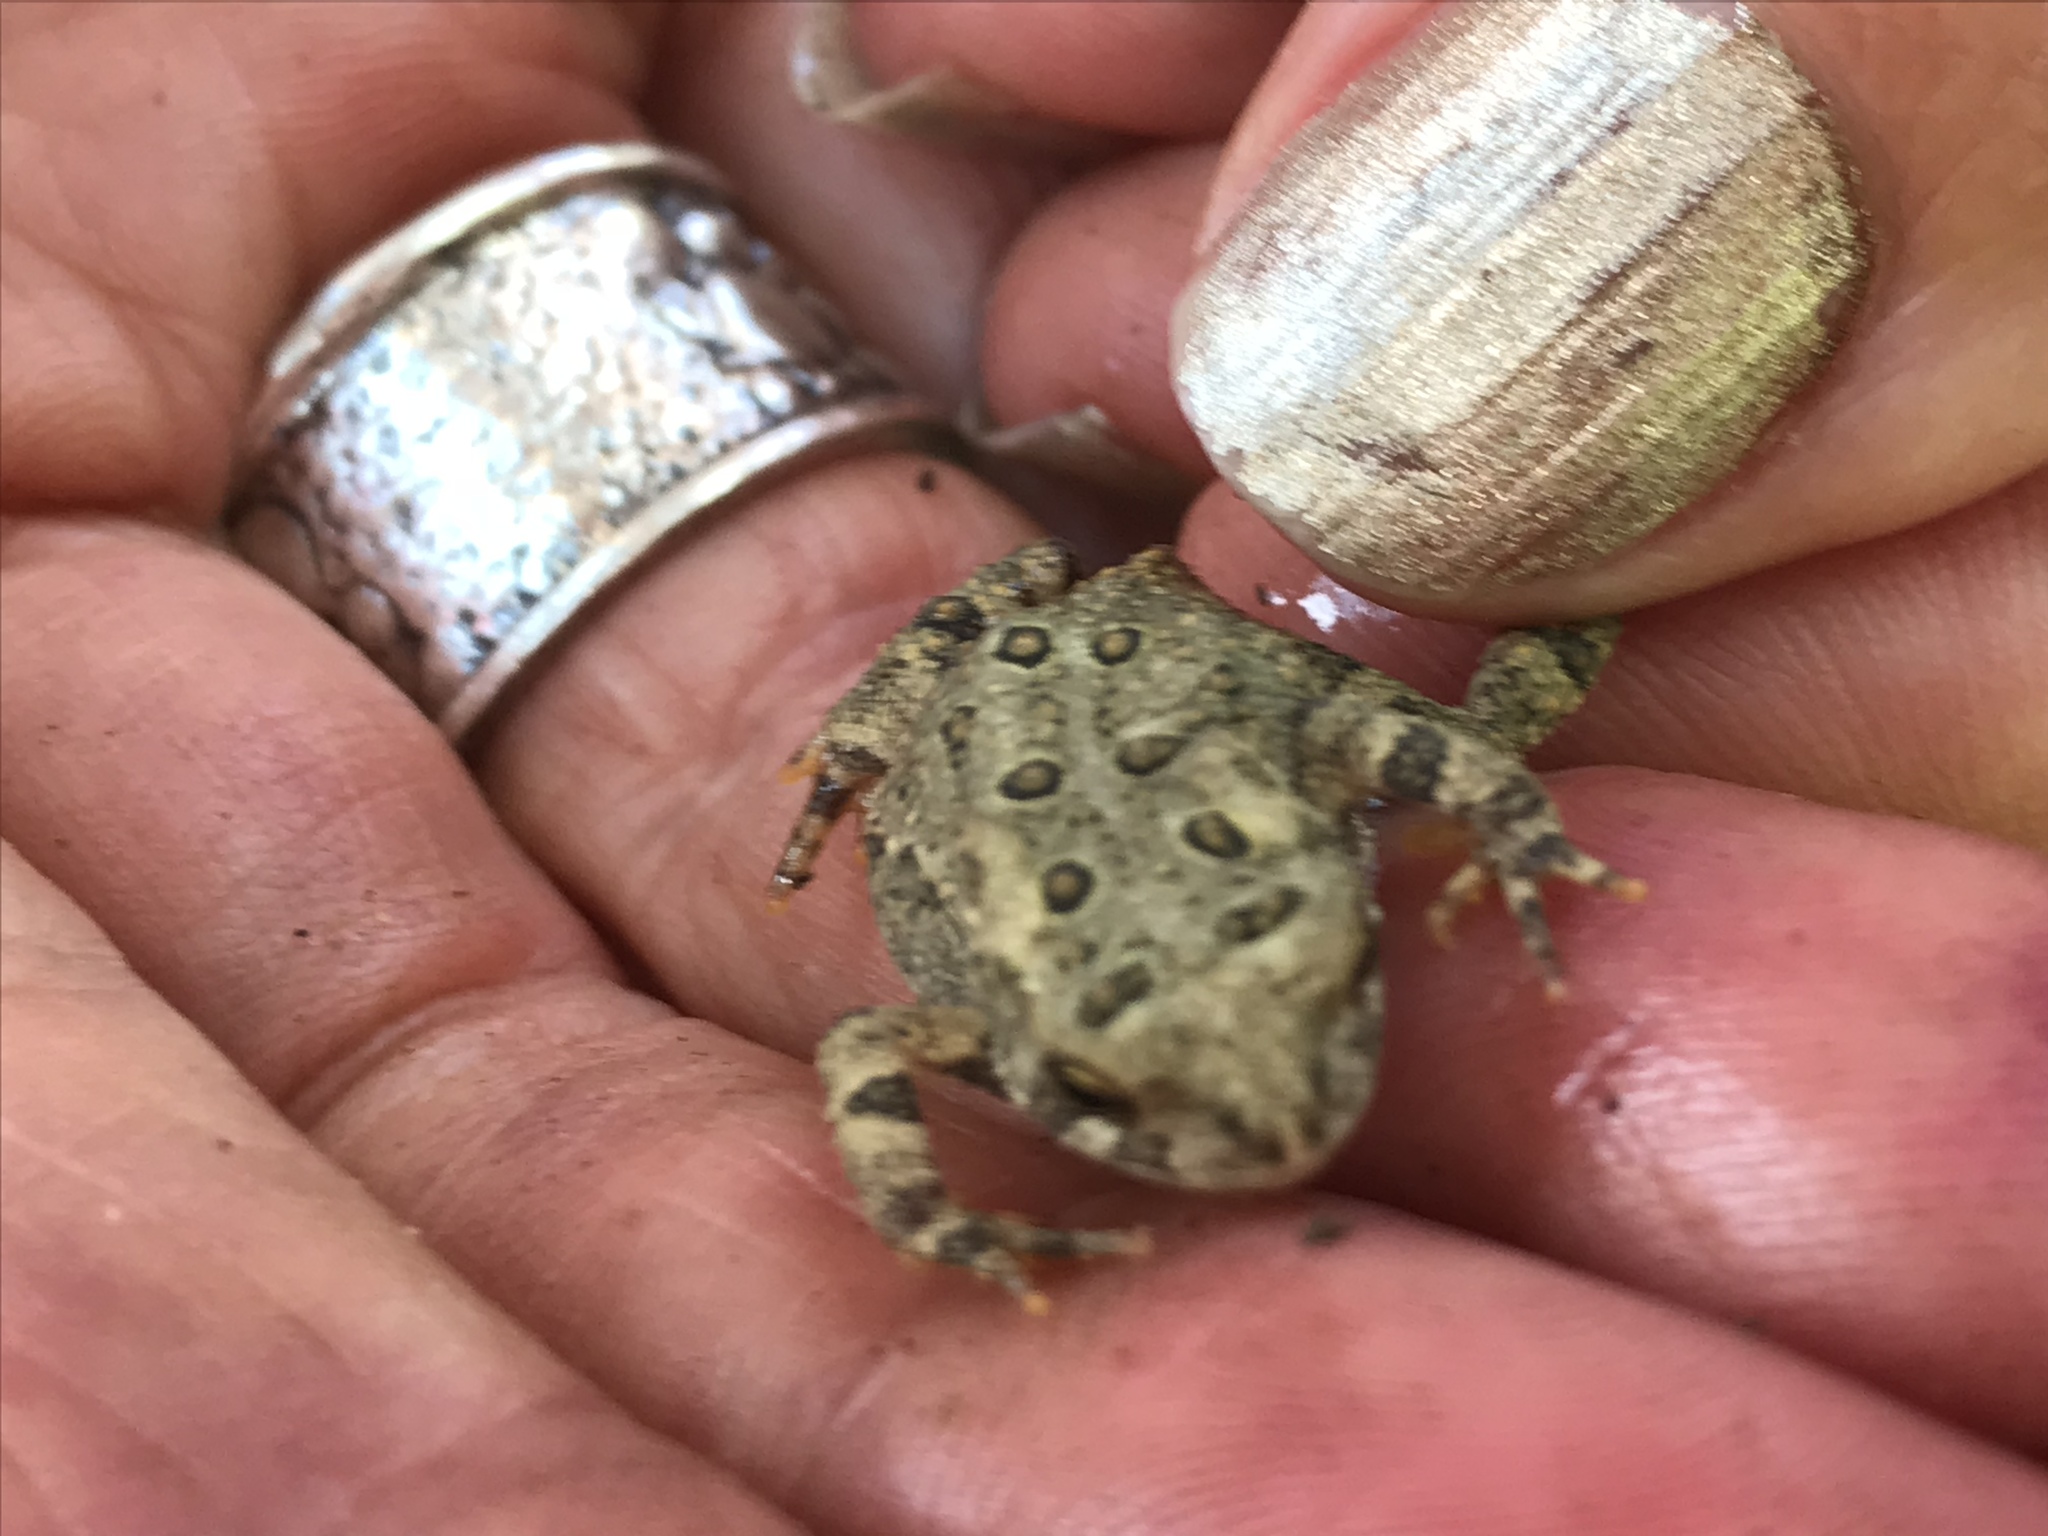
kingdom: Animalia
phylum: Chordata
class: Amphibia
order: Anura
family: Bufonidae
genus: Anaxyrus
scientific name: Anaxyrus americanus
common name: American toad
